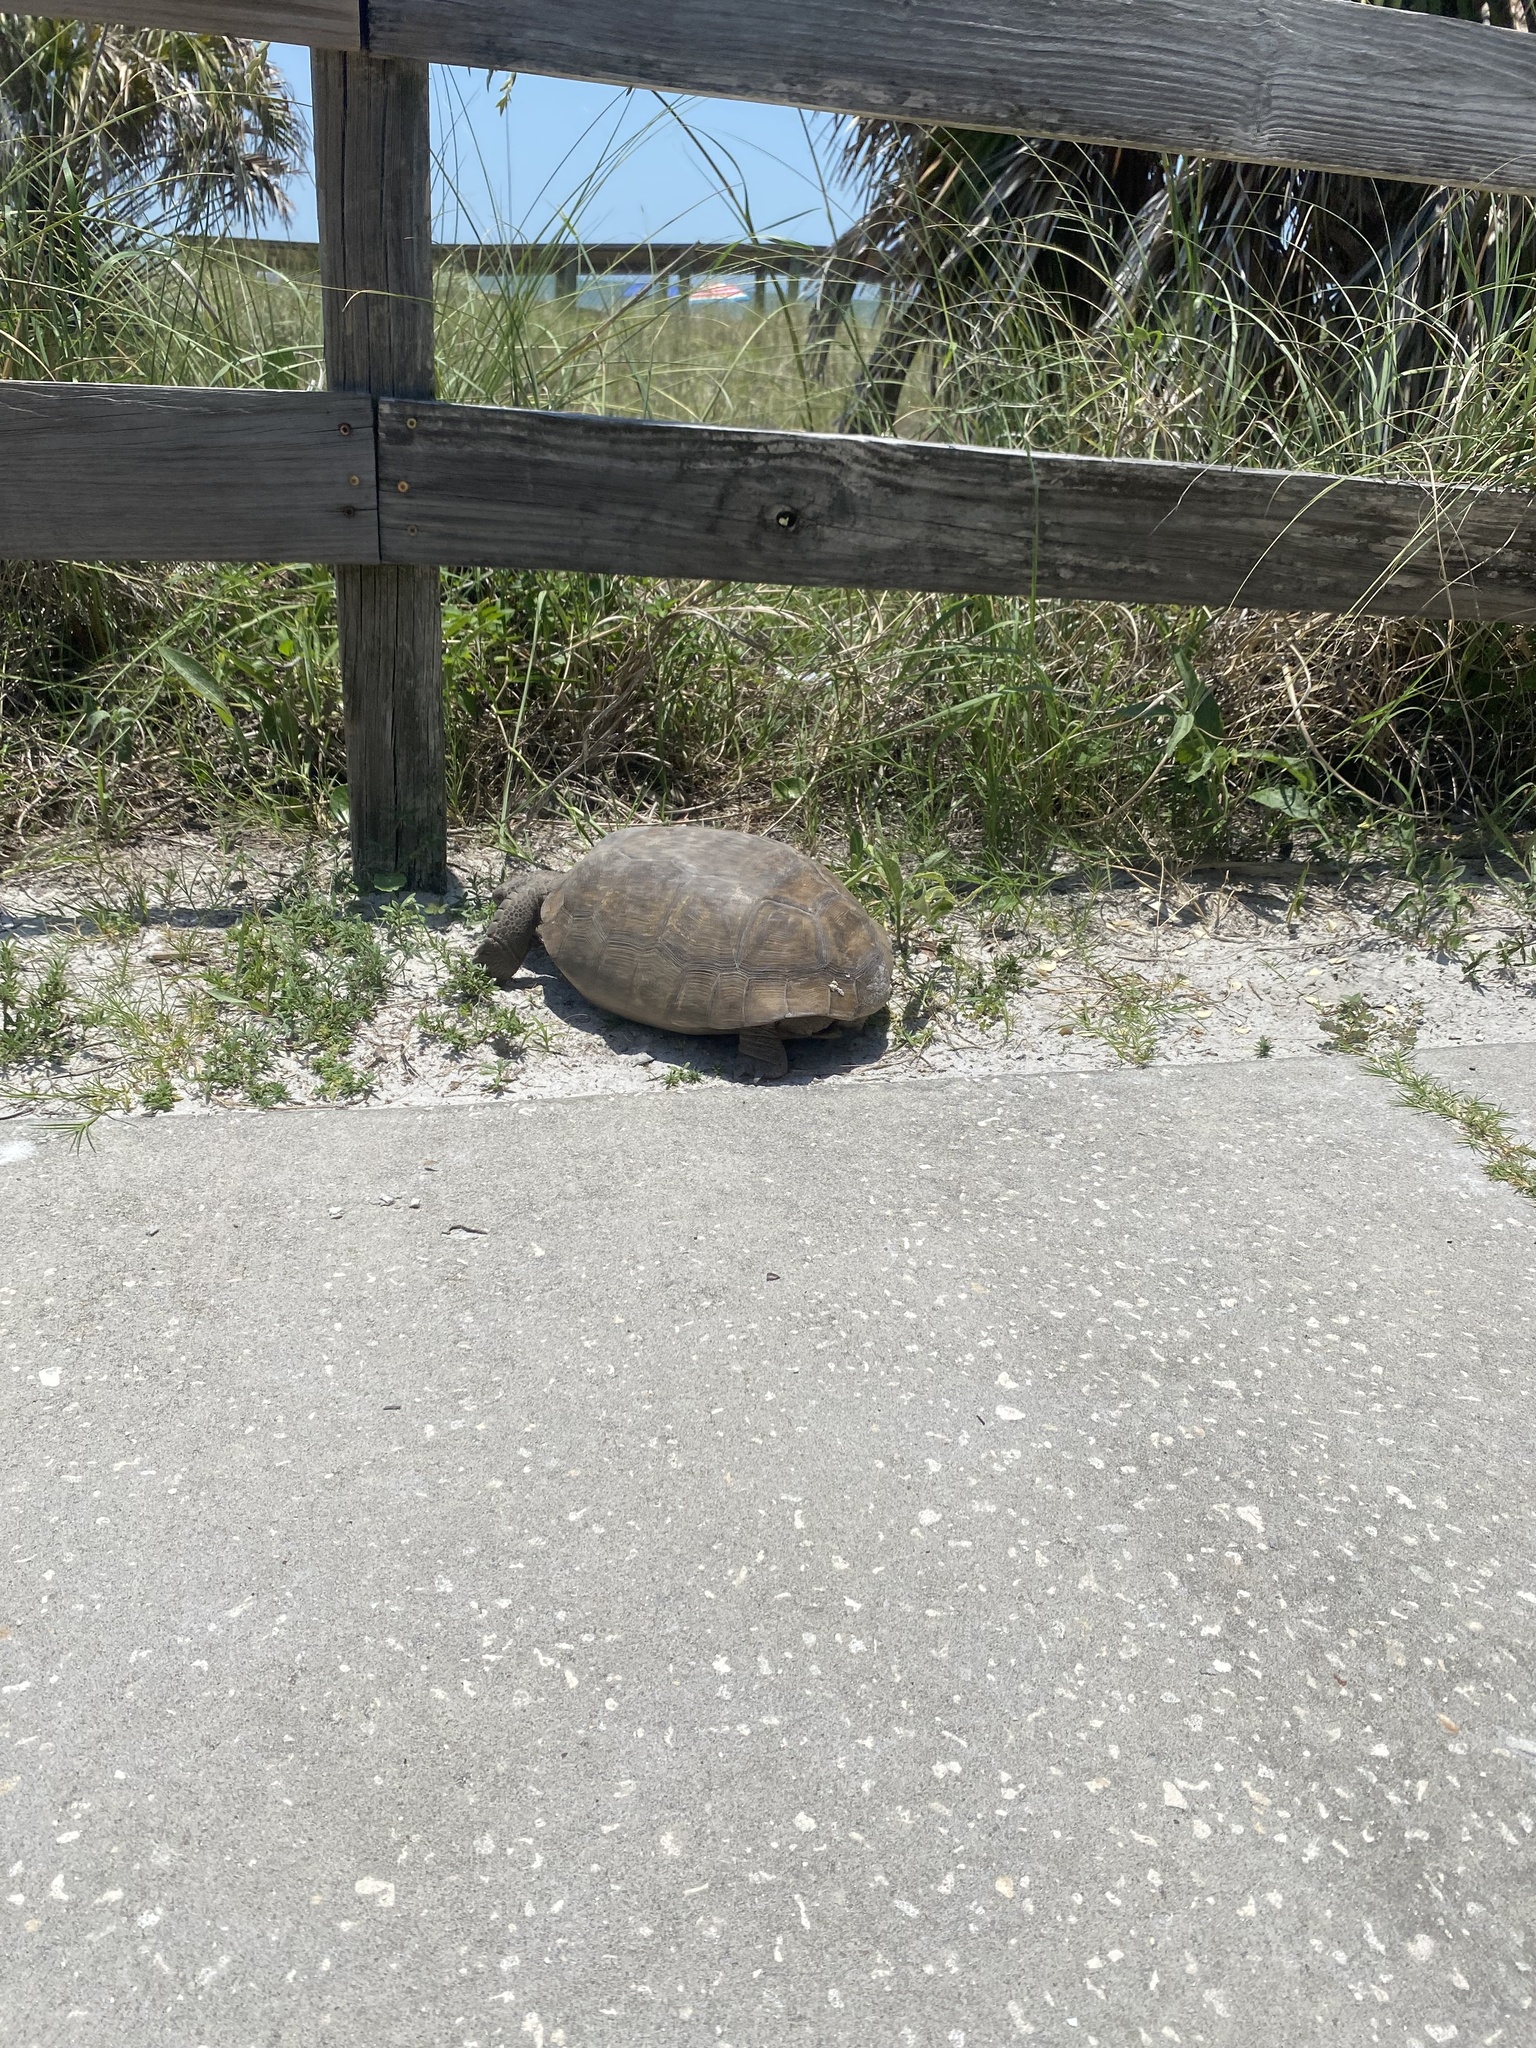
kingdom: Animalia
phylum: Chordata
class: Testudines
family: Testudinidae
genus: Gopherus
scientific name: Gopherus polyphemus
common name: Florida gopher tortoise
